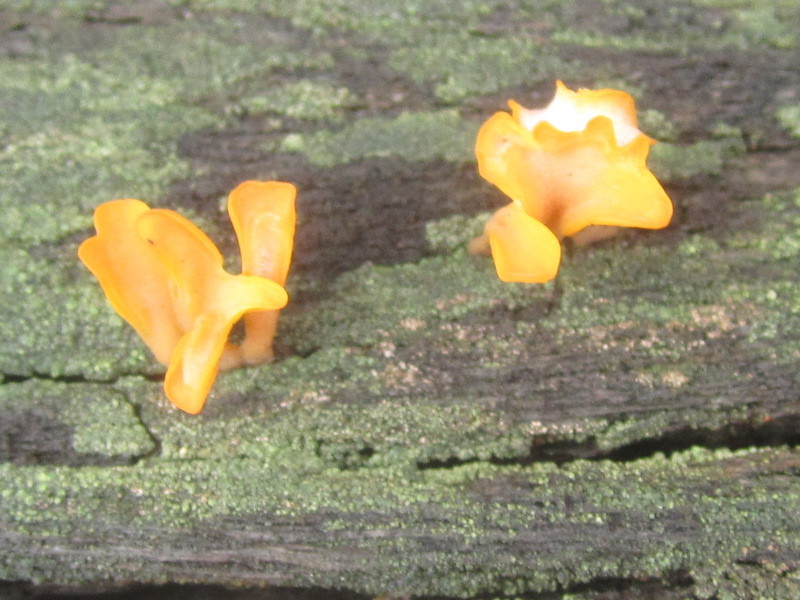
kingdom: Fungi
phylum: Basidiomycota
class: Dacrymycetes
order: Dacrymycetales
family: Dacrymycetaceae
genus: Dacrymyces
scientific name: Dacrymyces spathularius
